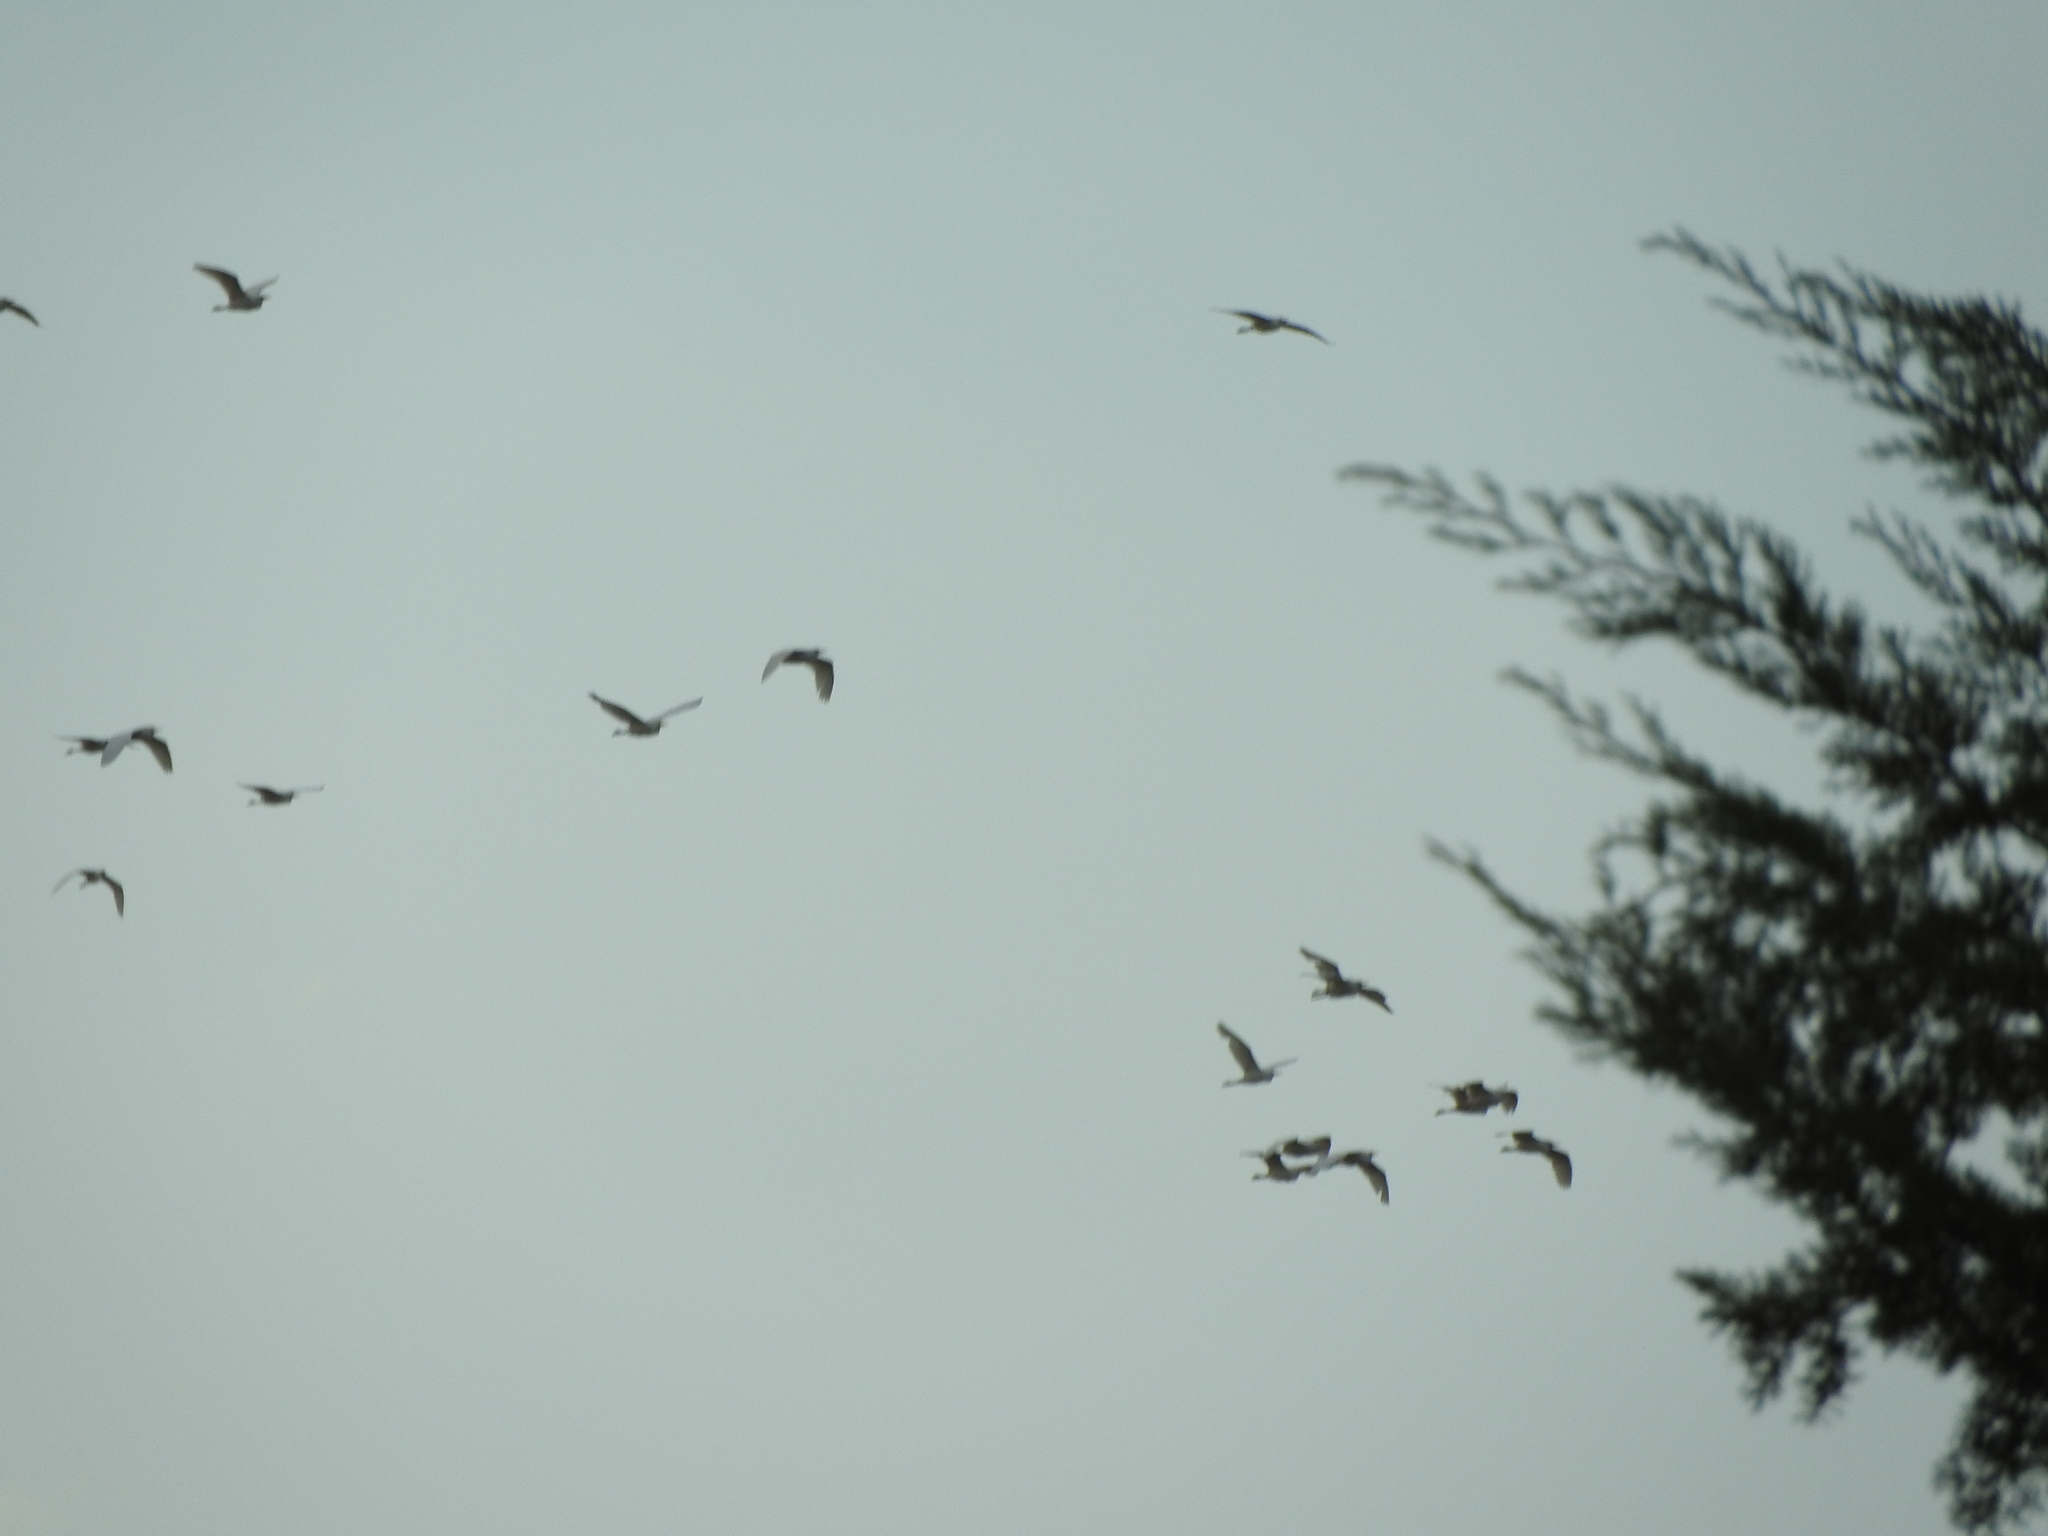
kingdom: Animalia
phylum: Chordata
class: Aves
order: Pelecaniformes
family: Ardeidae
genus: Bubulcus
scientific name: Bubulcus ibis
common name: Cattle egret
